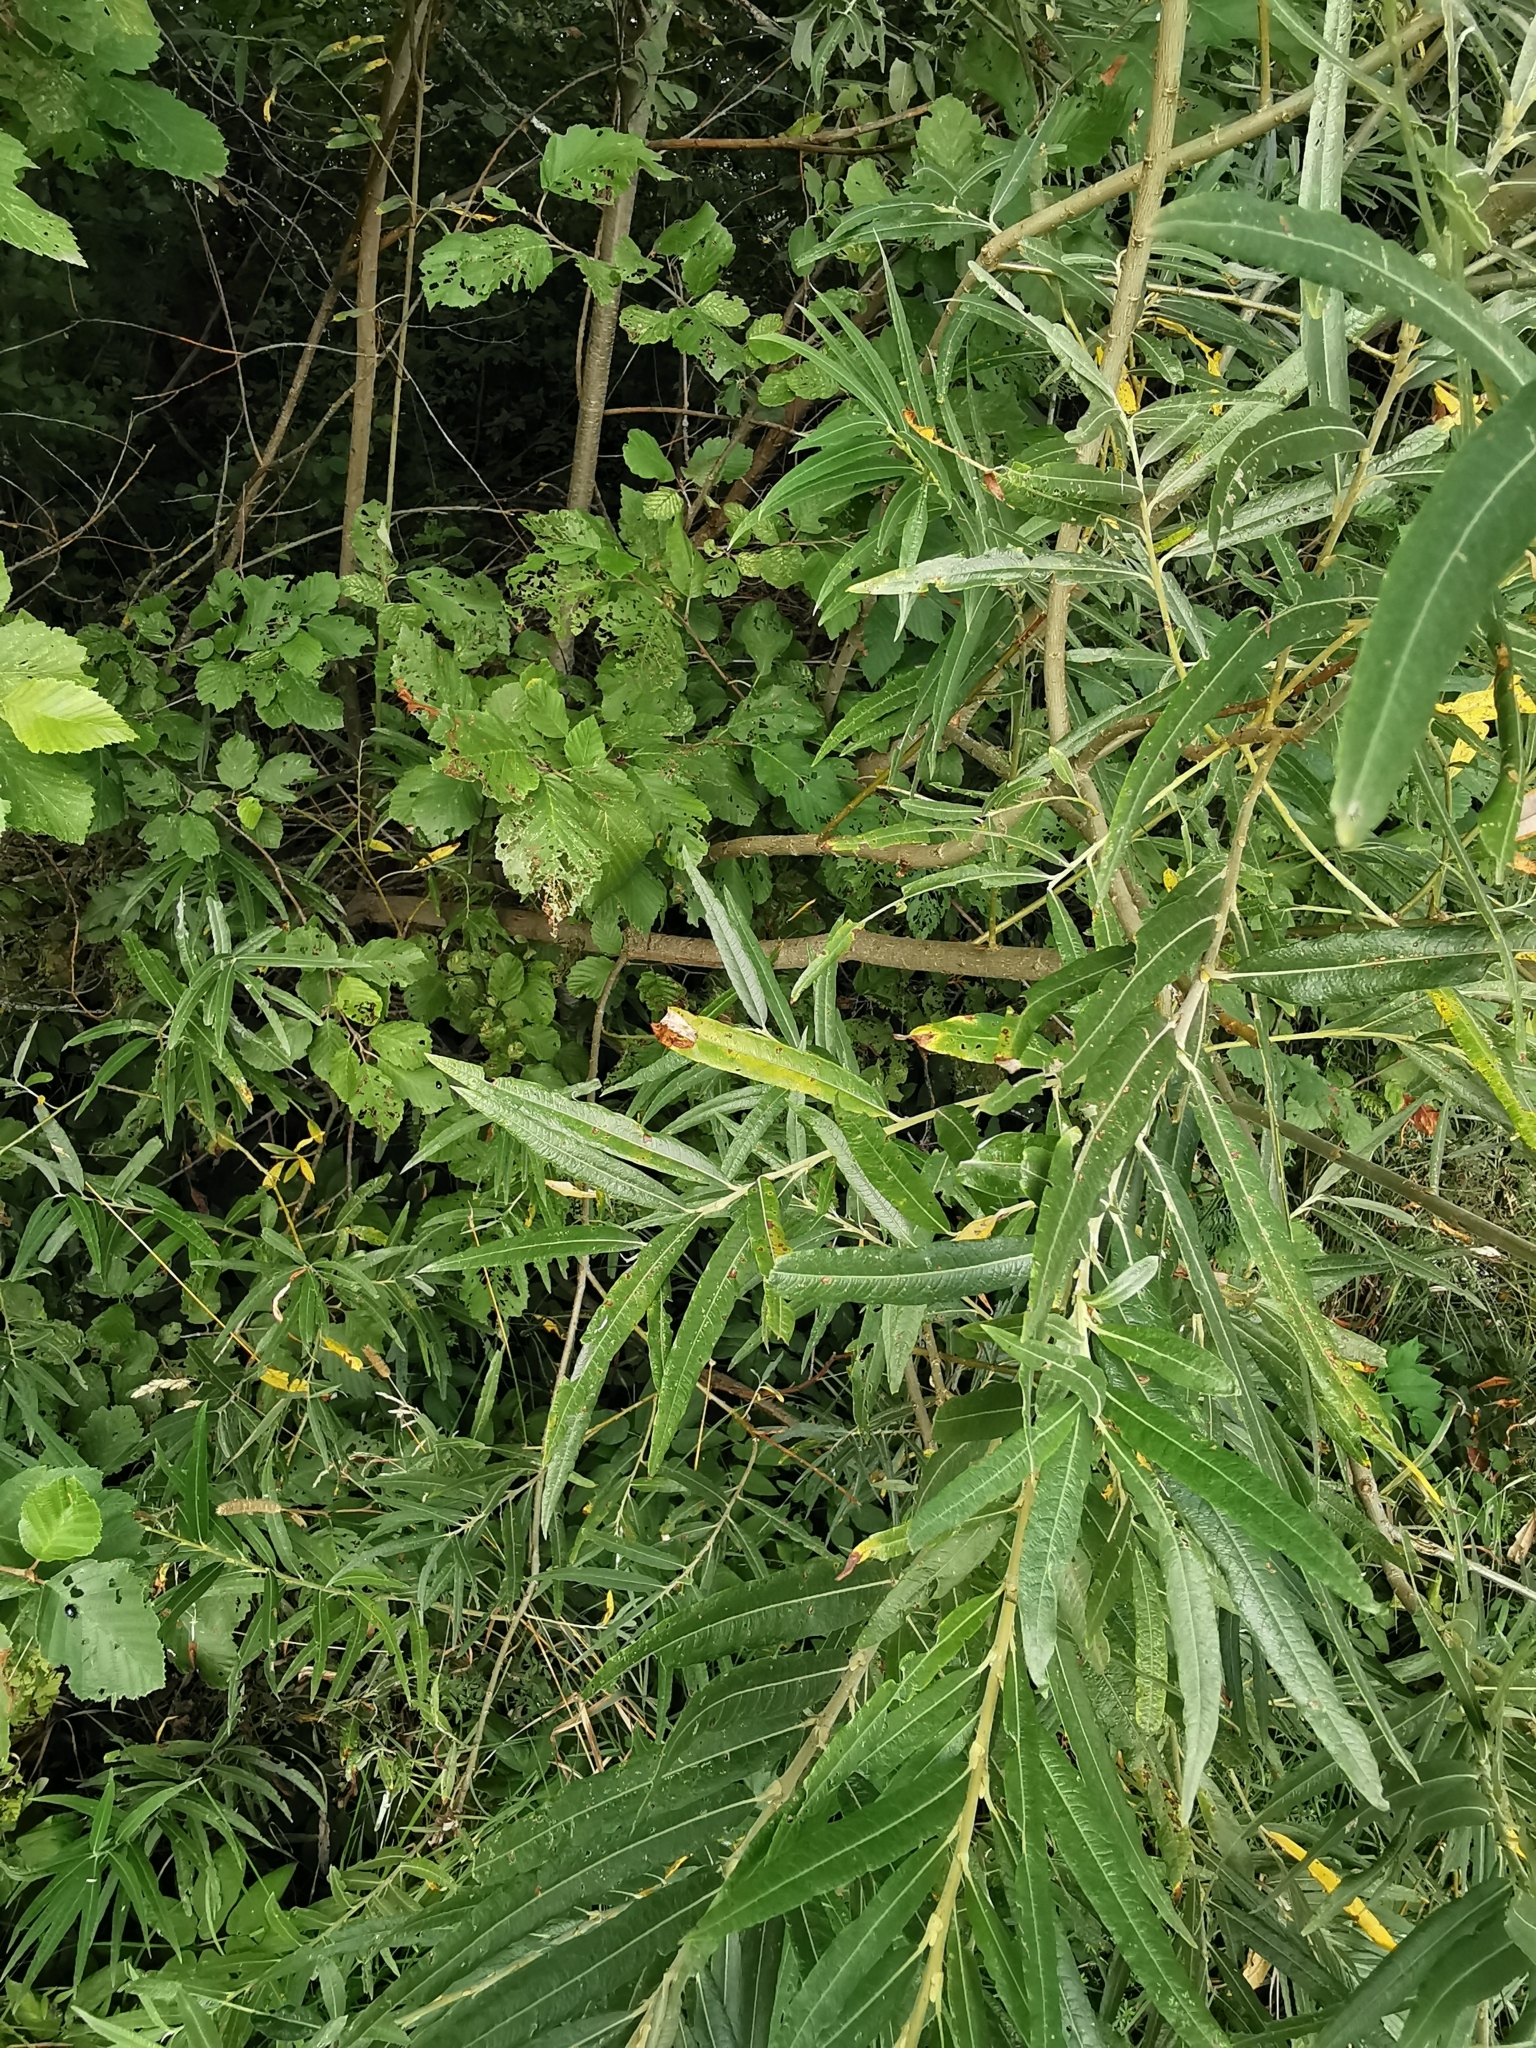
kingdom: Plantae
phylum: Tracheophyta
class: Magnoliopsida
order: Malpighiales
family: Salicaceae
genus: Salix
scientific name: Salix viminalis
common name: Osier
